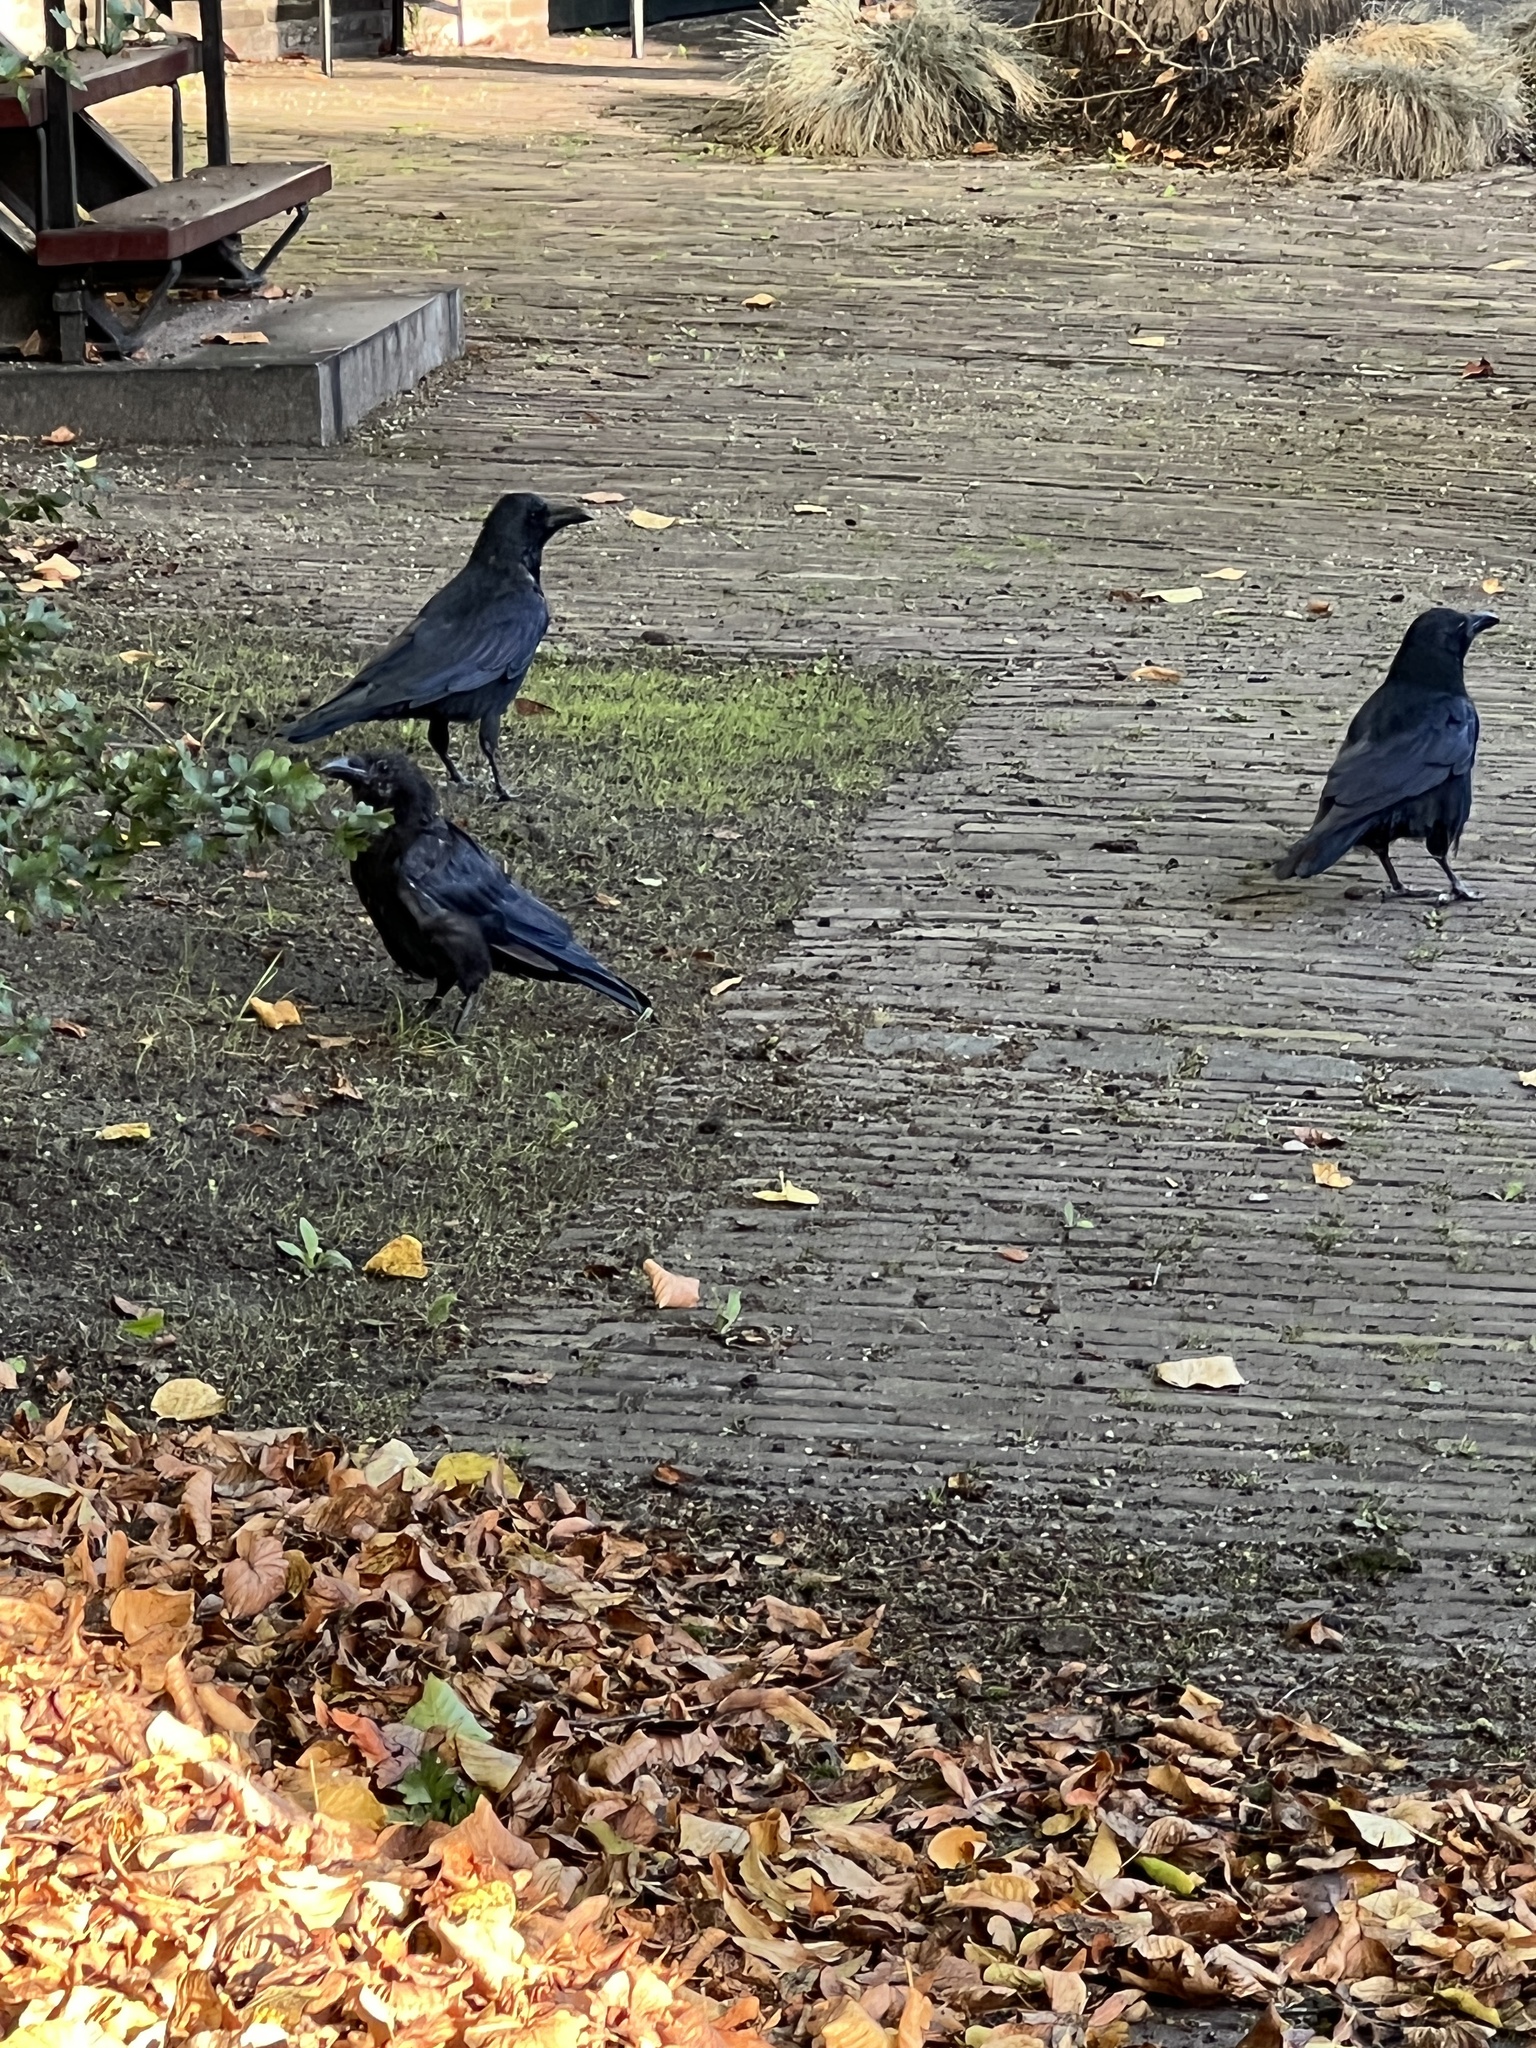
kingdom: Animalia
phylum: Chordata
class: Aves
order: Passeriformes
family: Corvidae
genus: Corvus
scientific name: Corvus corone
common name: Carrion crow
